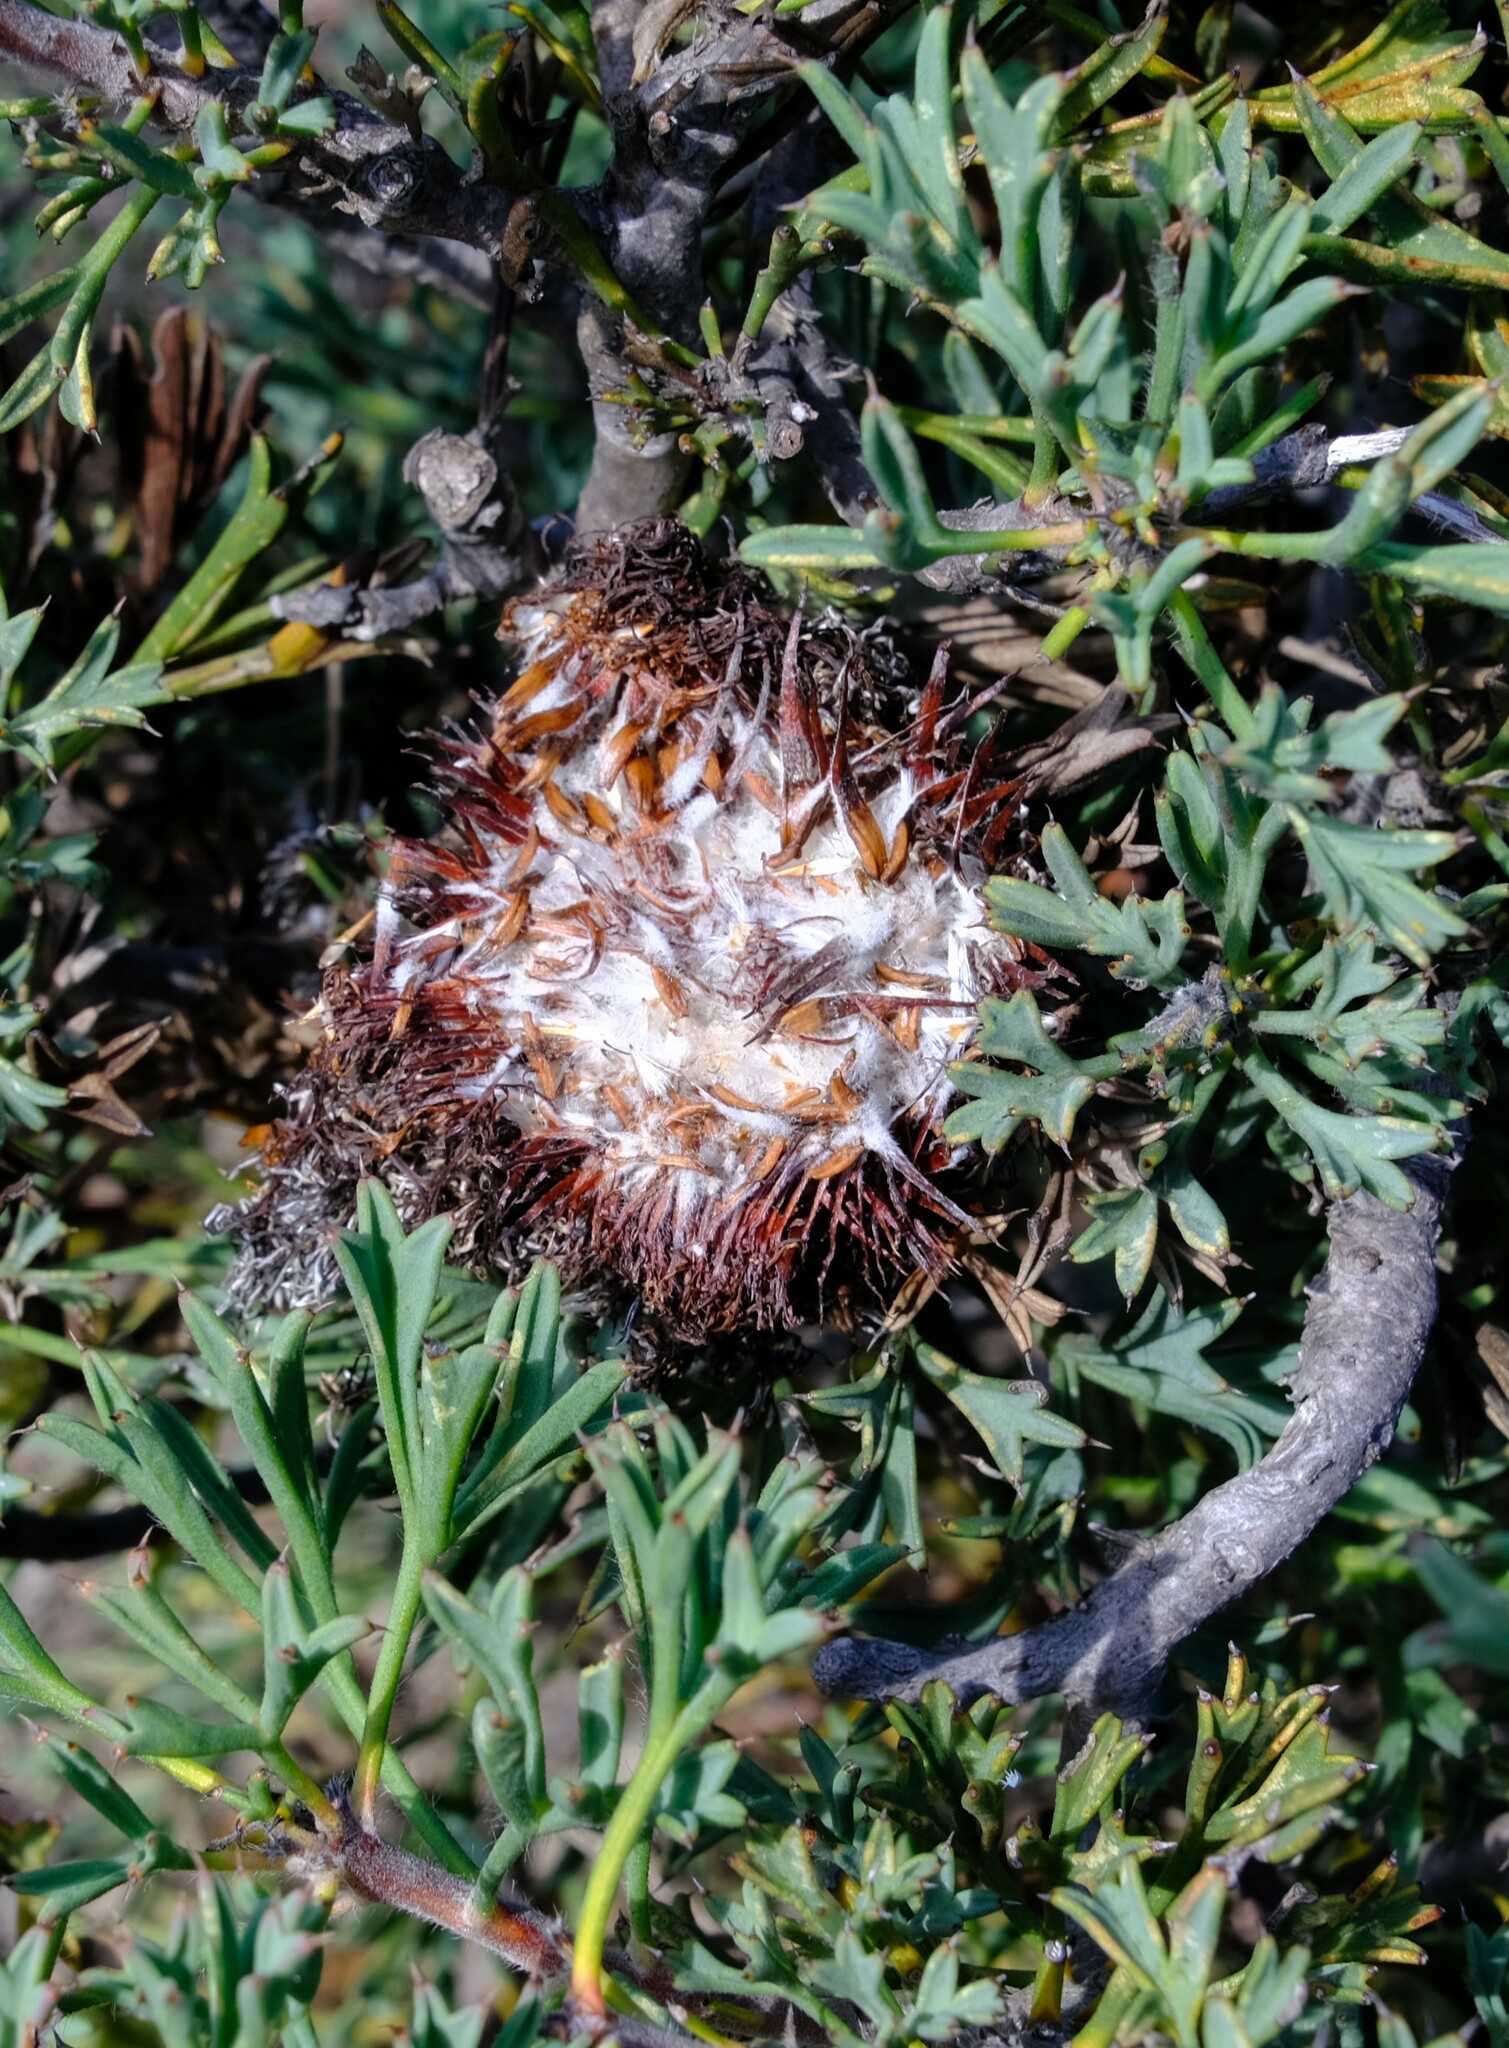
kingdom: Plantae
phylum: Tracheophyta
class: Magnoliopsida
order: Proteales
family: Proteaceae
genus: Isopogon
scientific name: Isopogon dubius
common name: Pincushion-coneflower
